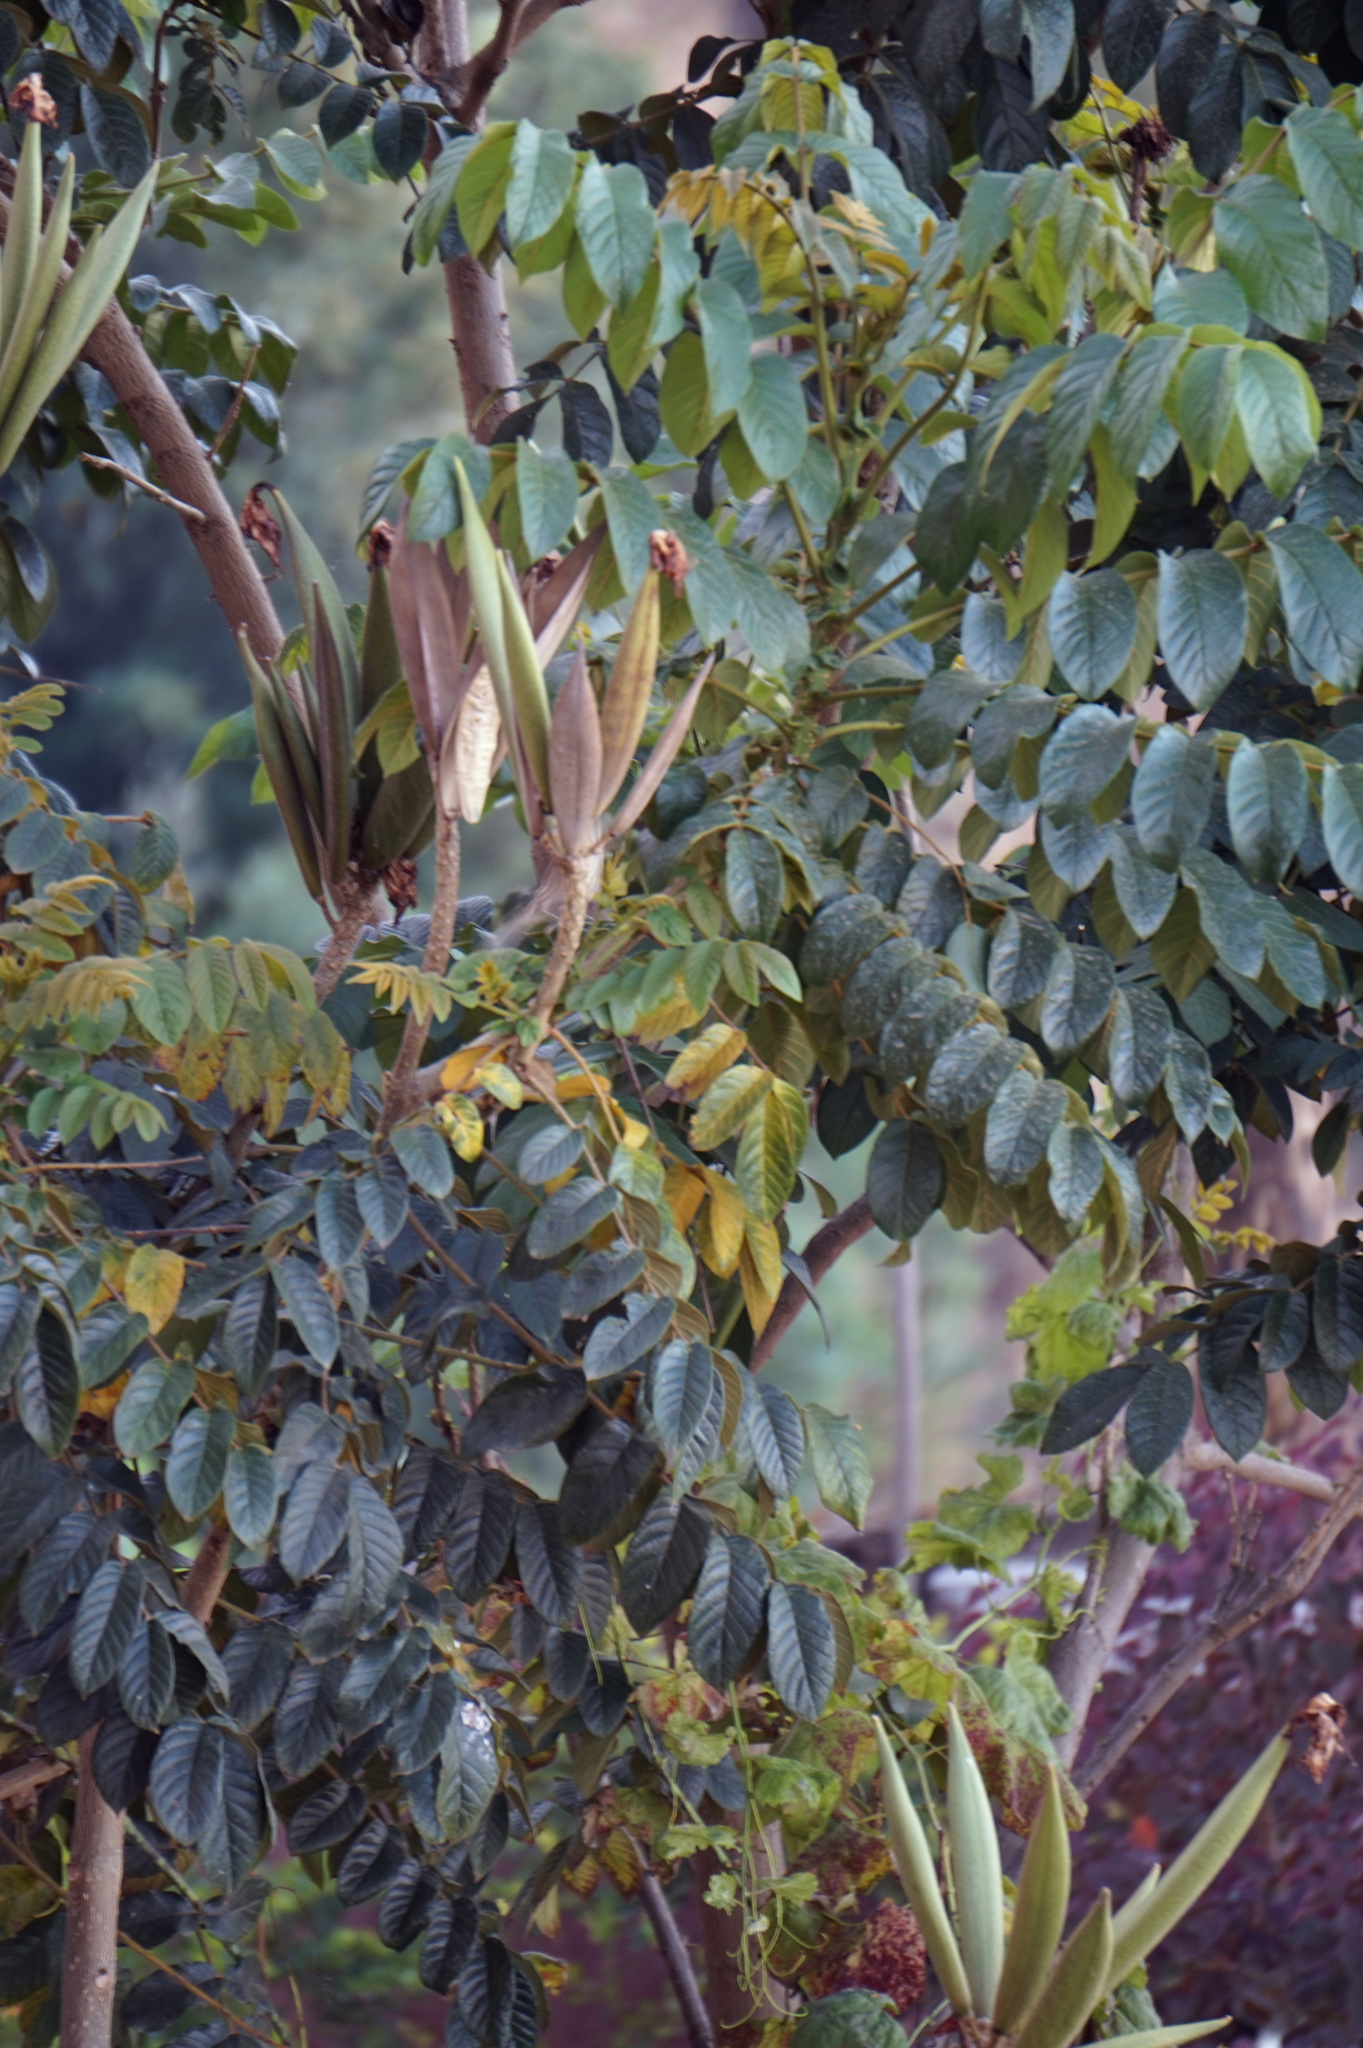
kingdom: Plantae
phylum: Tracheophyta
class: Magnoliopsida
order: Lamiales
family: Bignoniaceae
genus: Spathodea
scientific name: Spathodea campanulata
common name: African tuliptree
